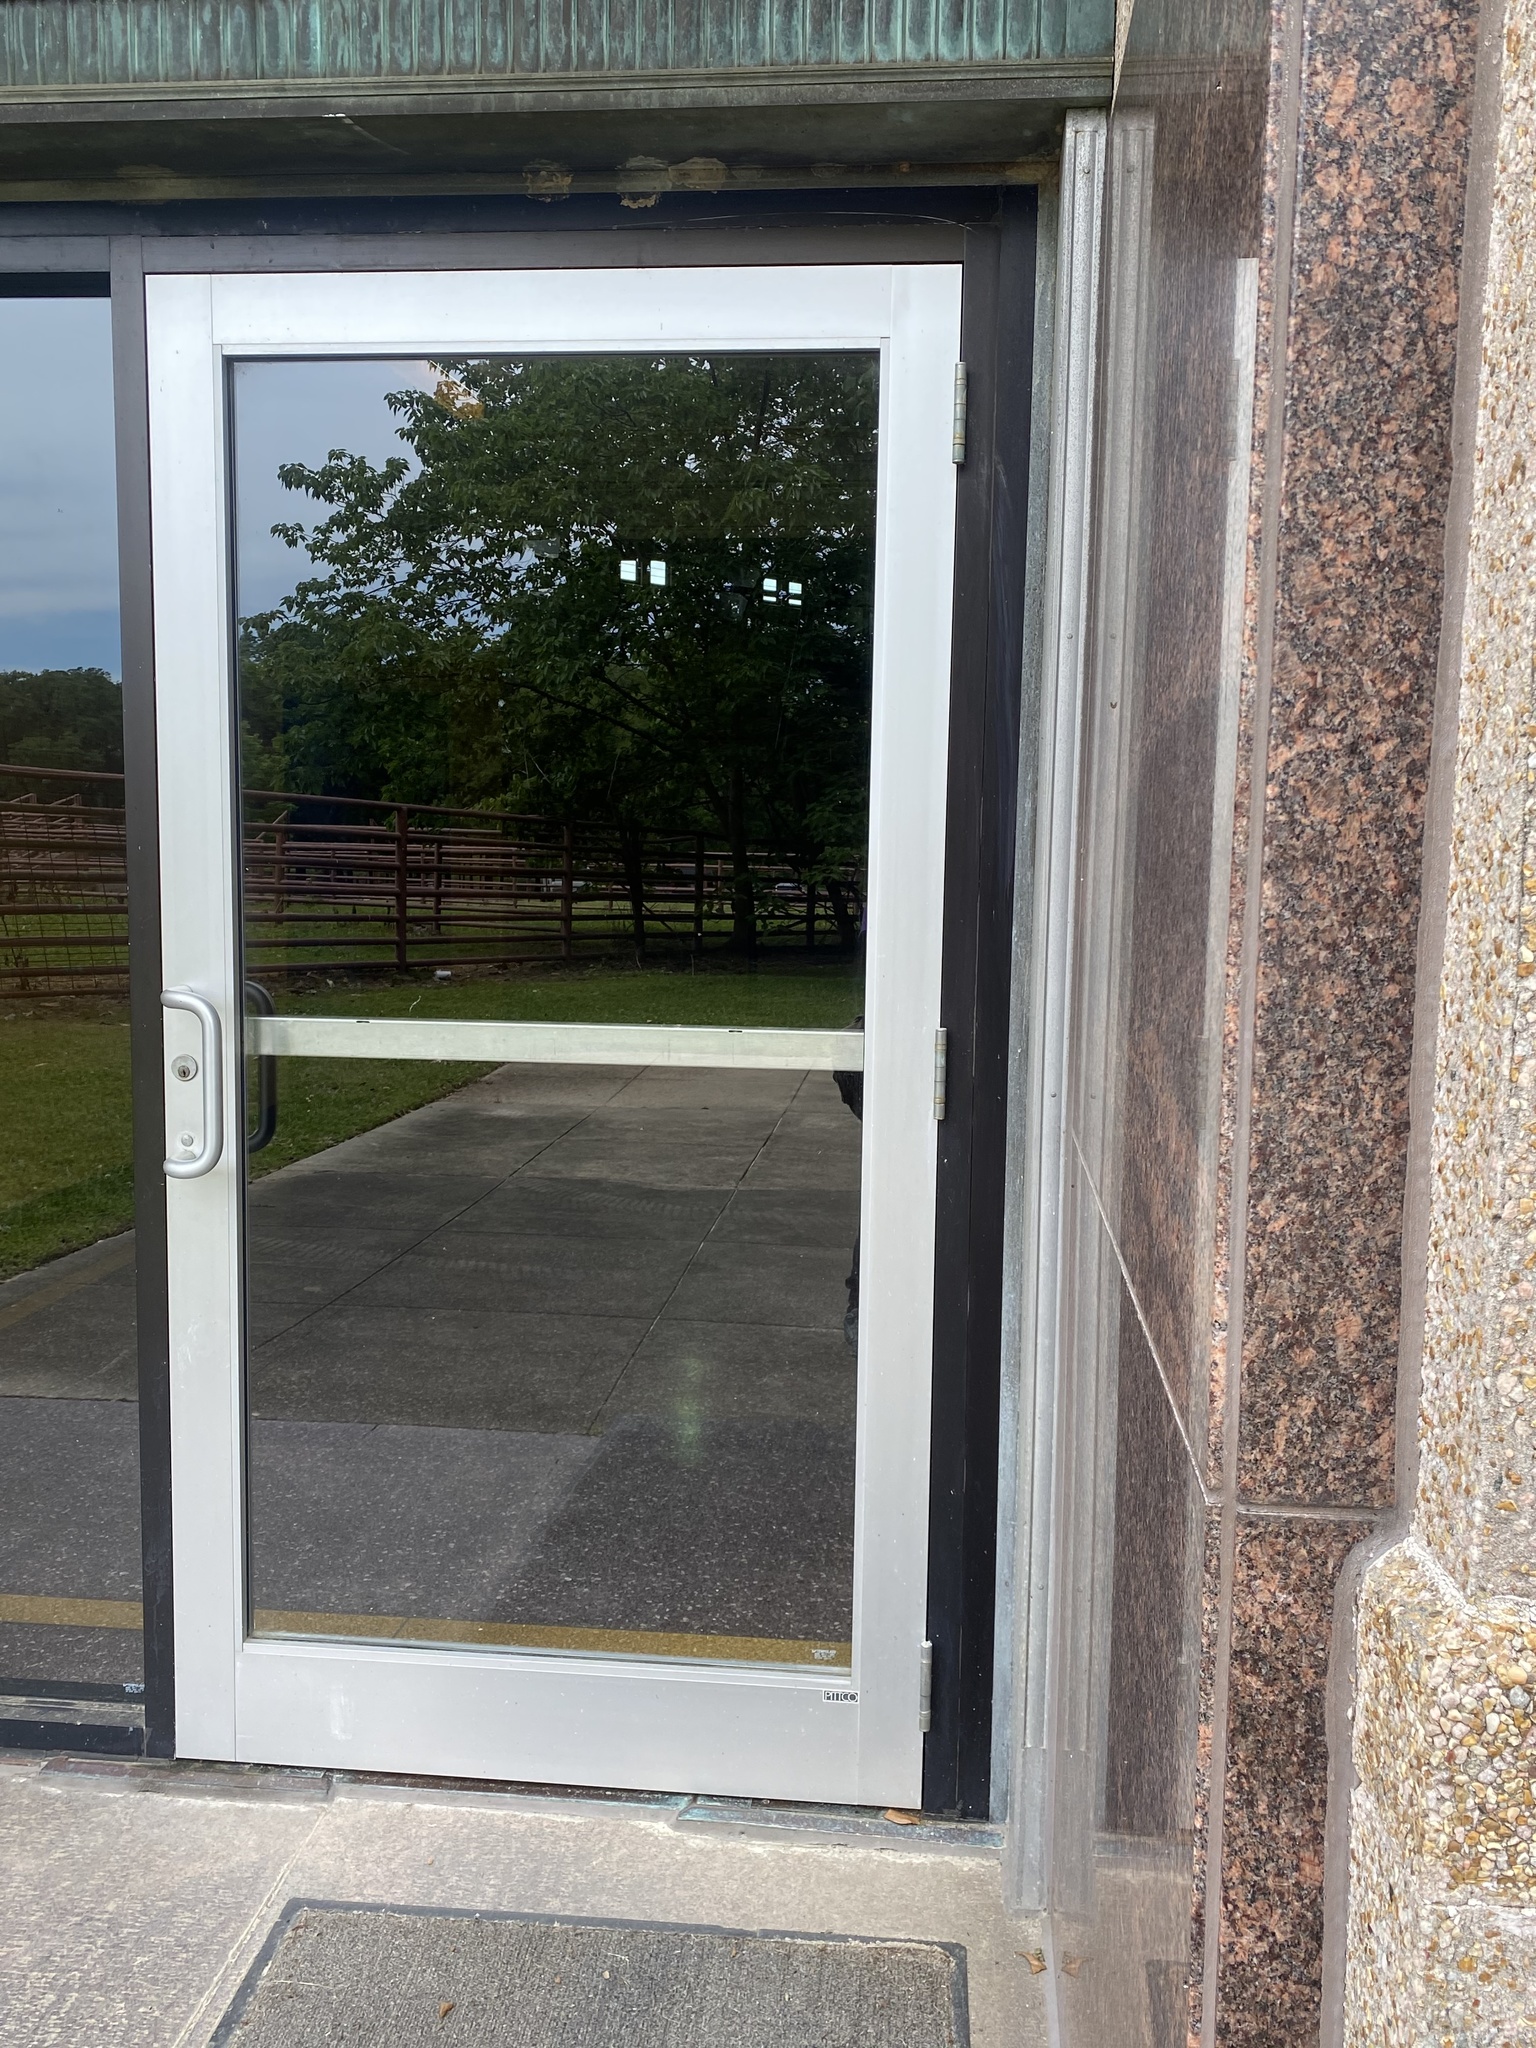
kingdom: Animalia
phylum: Chordata
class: Aves
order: Passeriformes
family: Fringillidae
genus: Haemorhous
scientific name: Haemorhous mexicanus
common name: House finch
